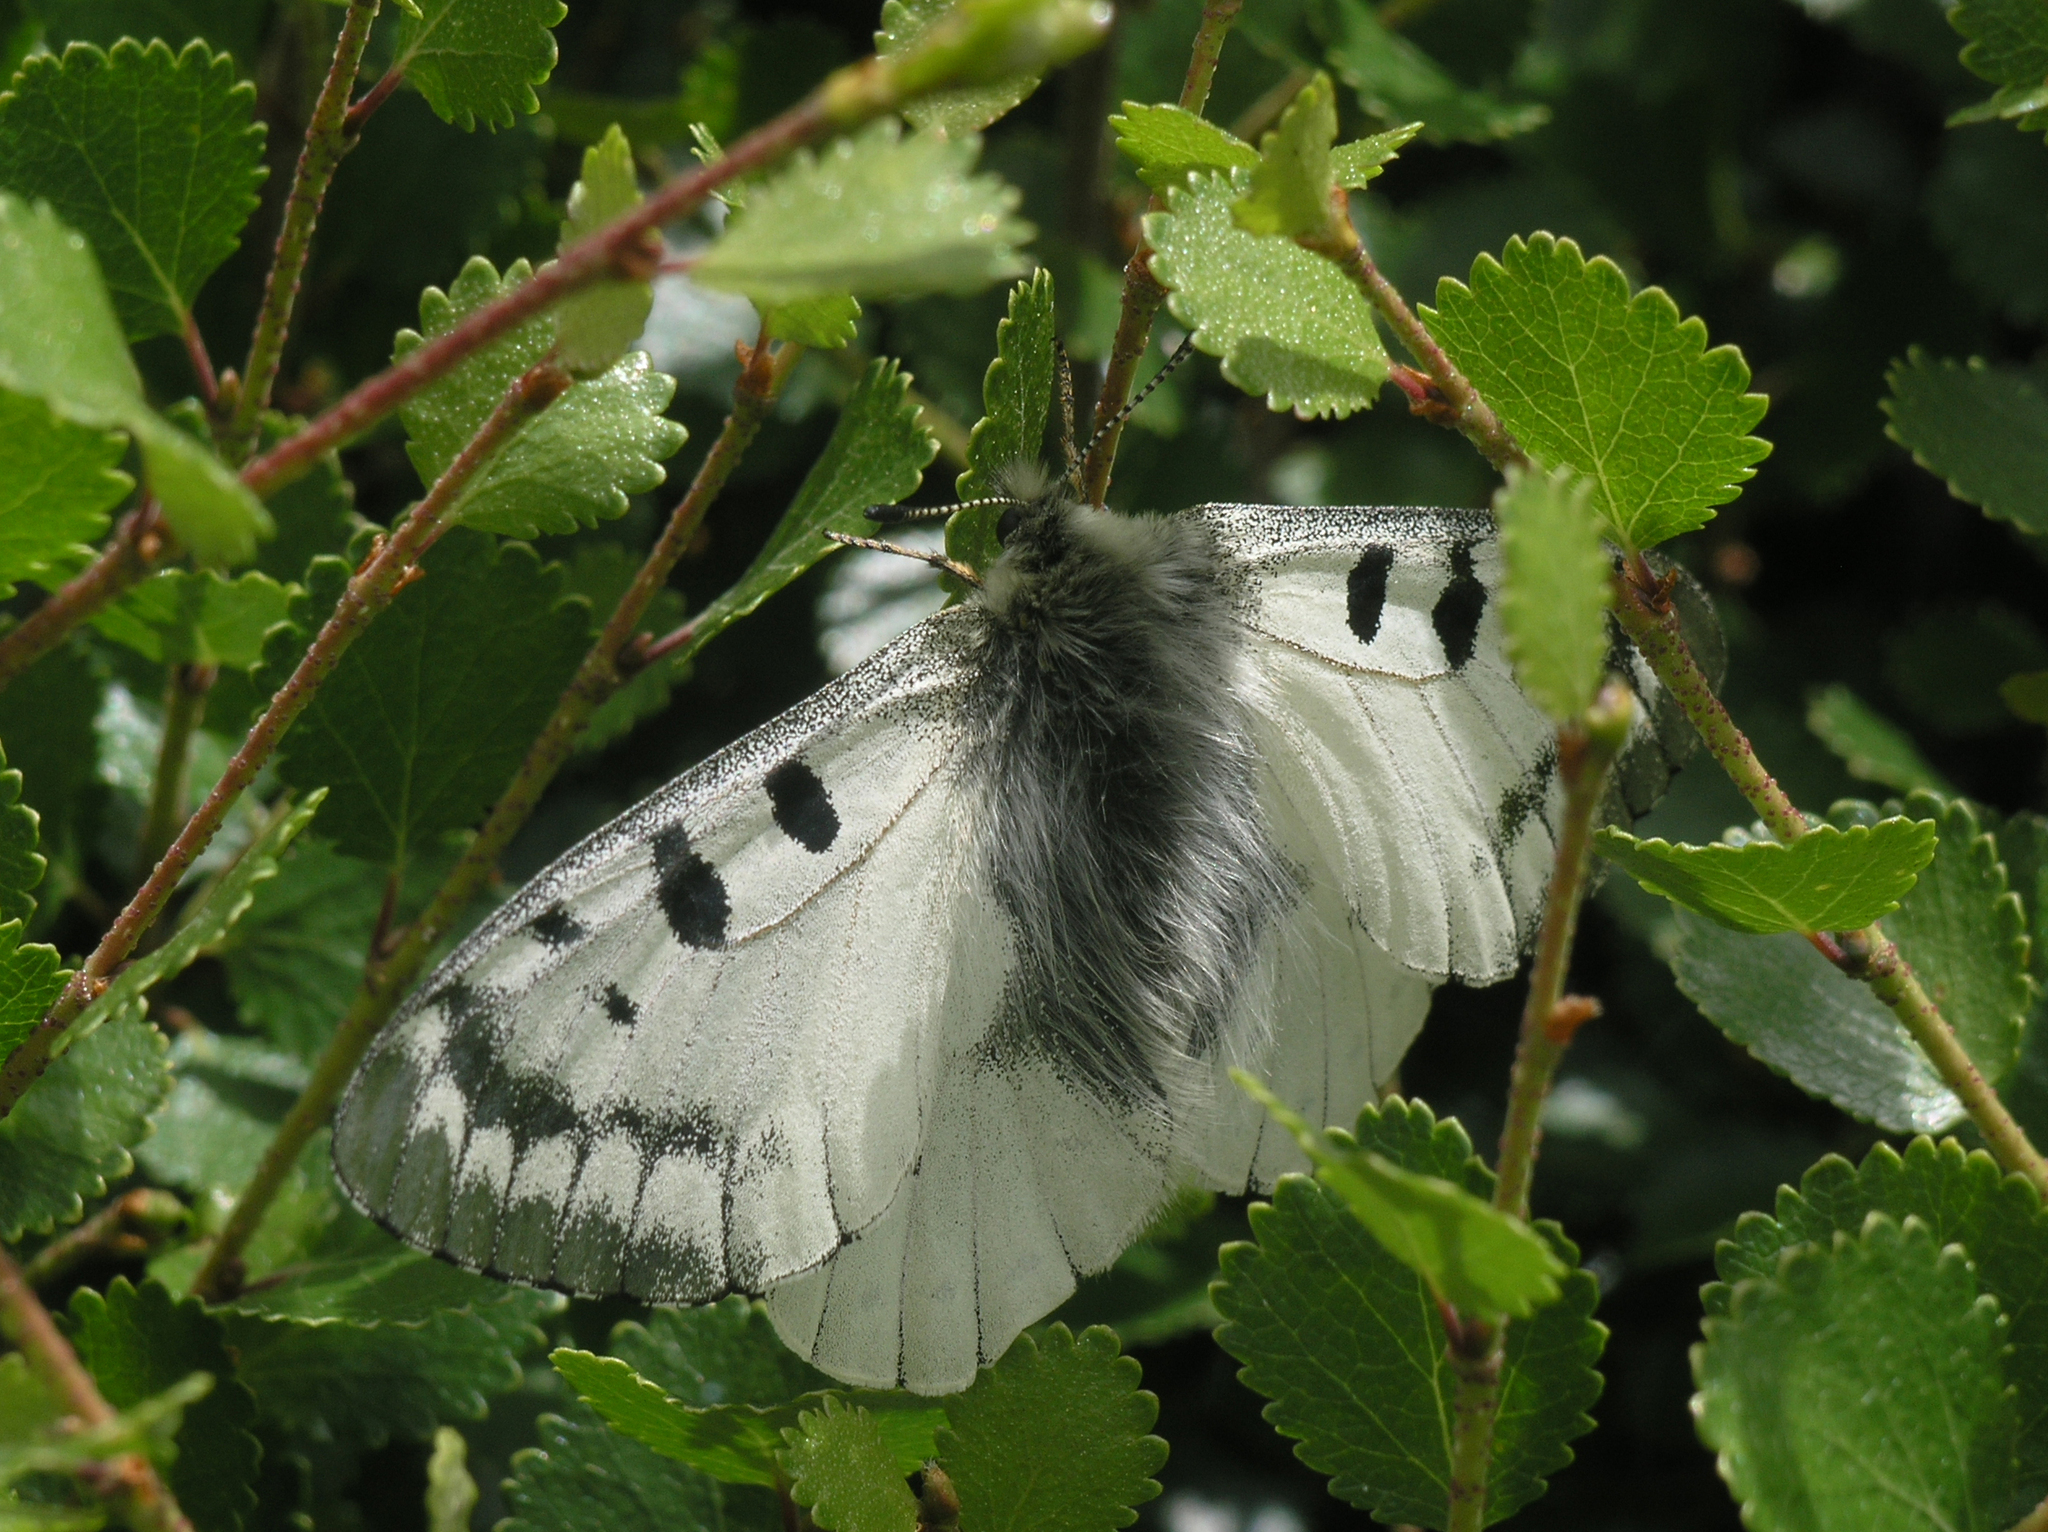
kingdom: Animalia
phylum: Arthropoda
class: Insecta
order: Lepidoptera
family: Papilionidae
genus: Parnassius
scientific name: Parnassius phoebus
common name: Small apollo
